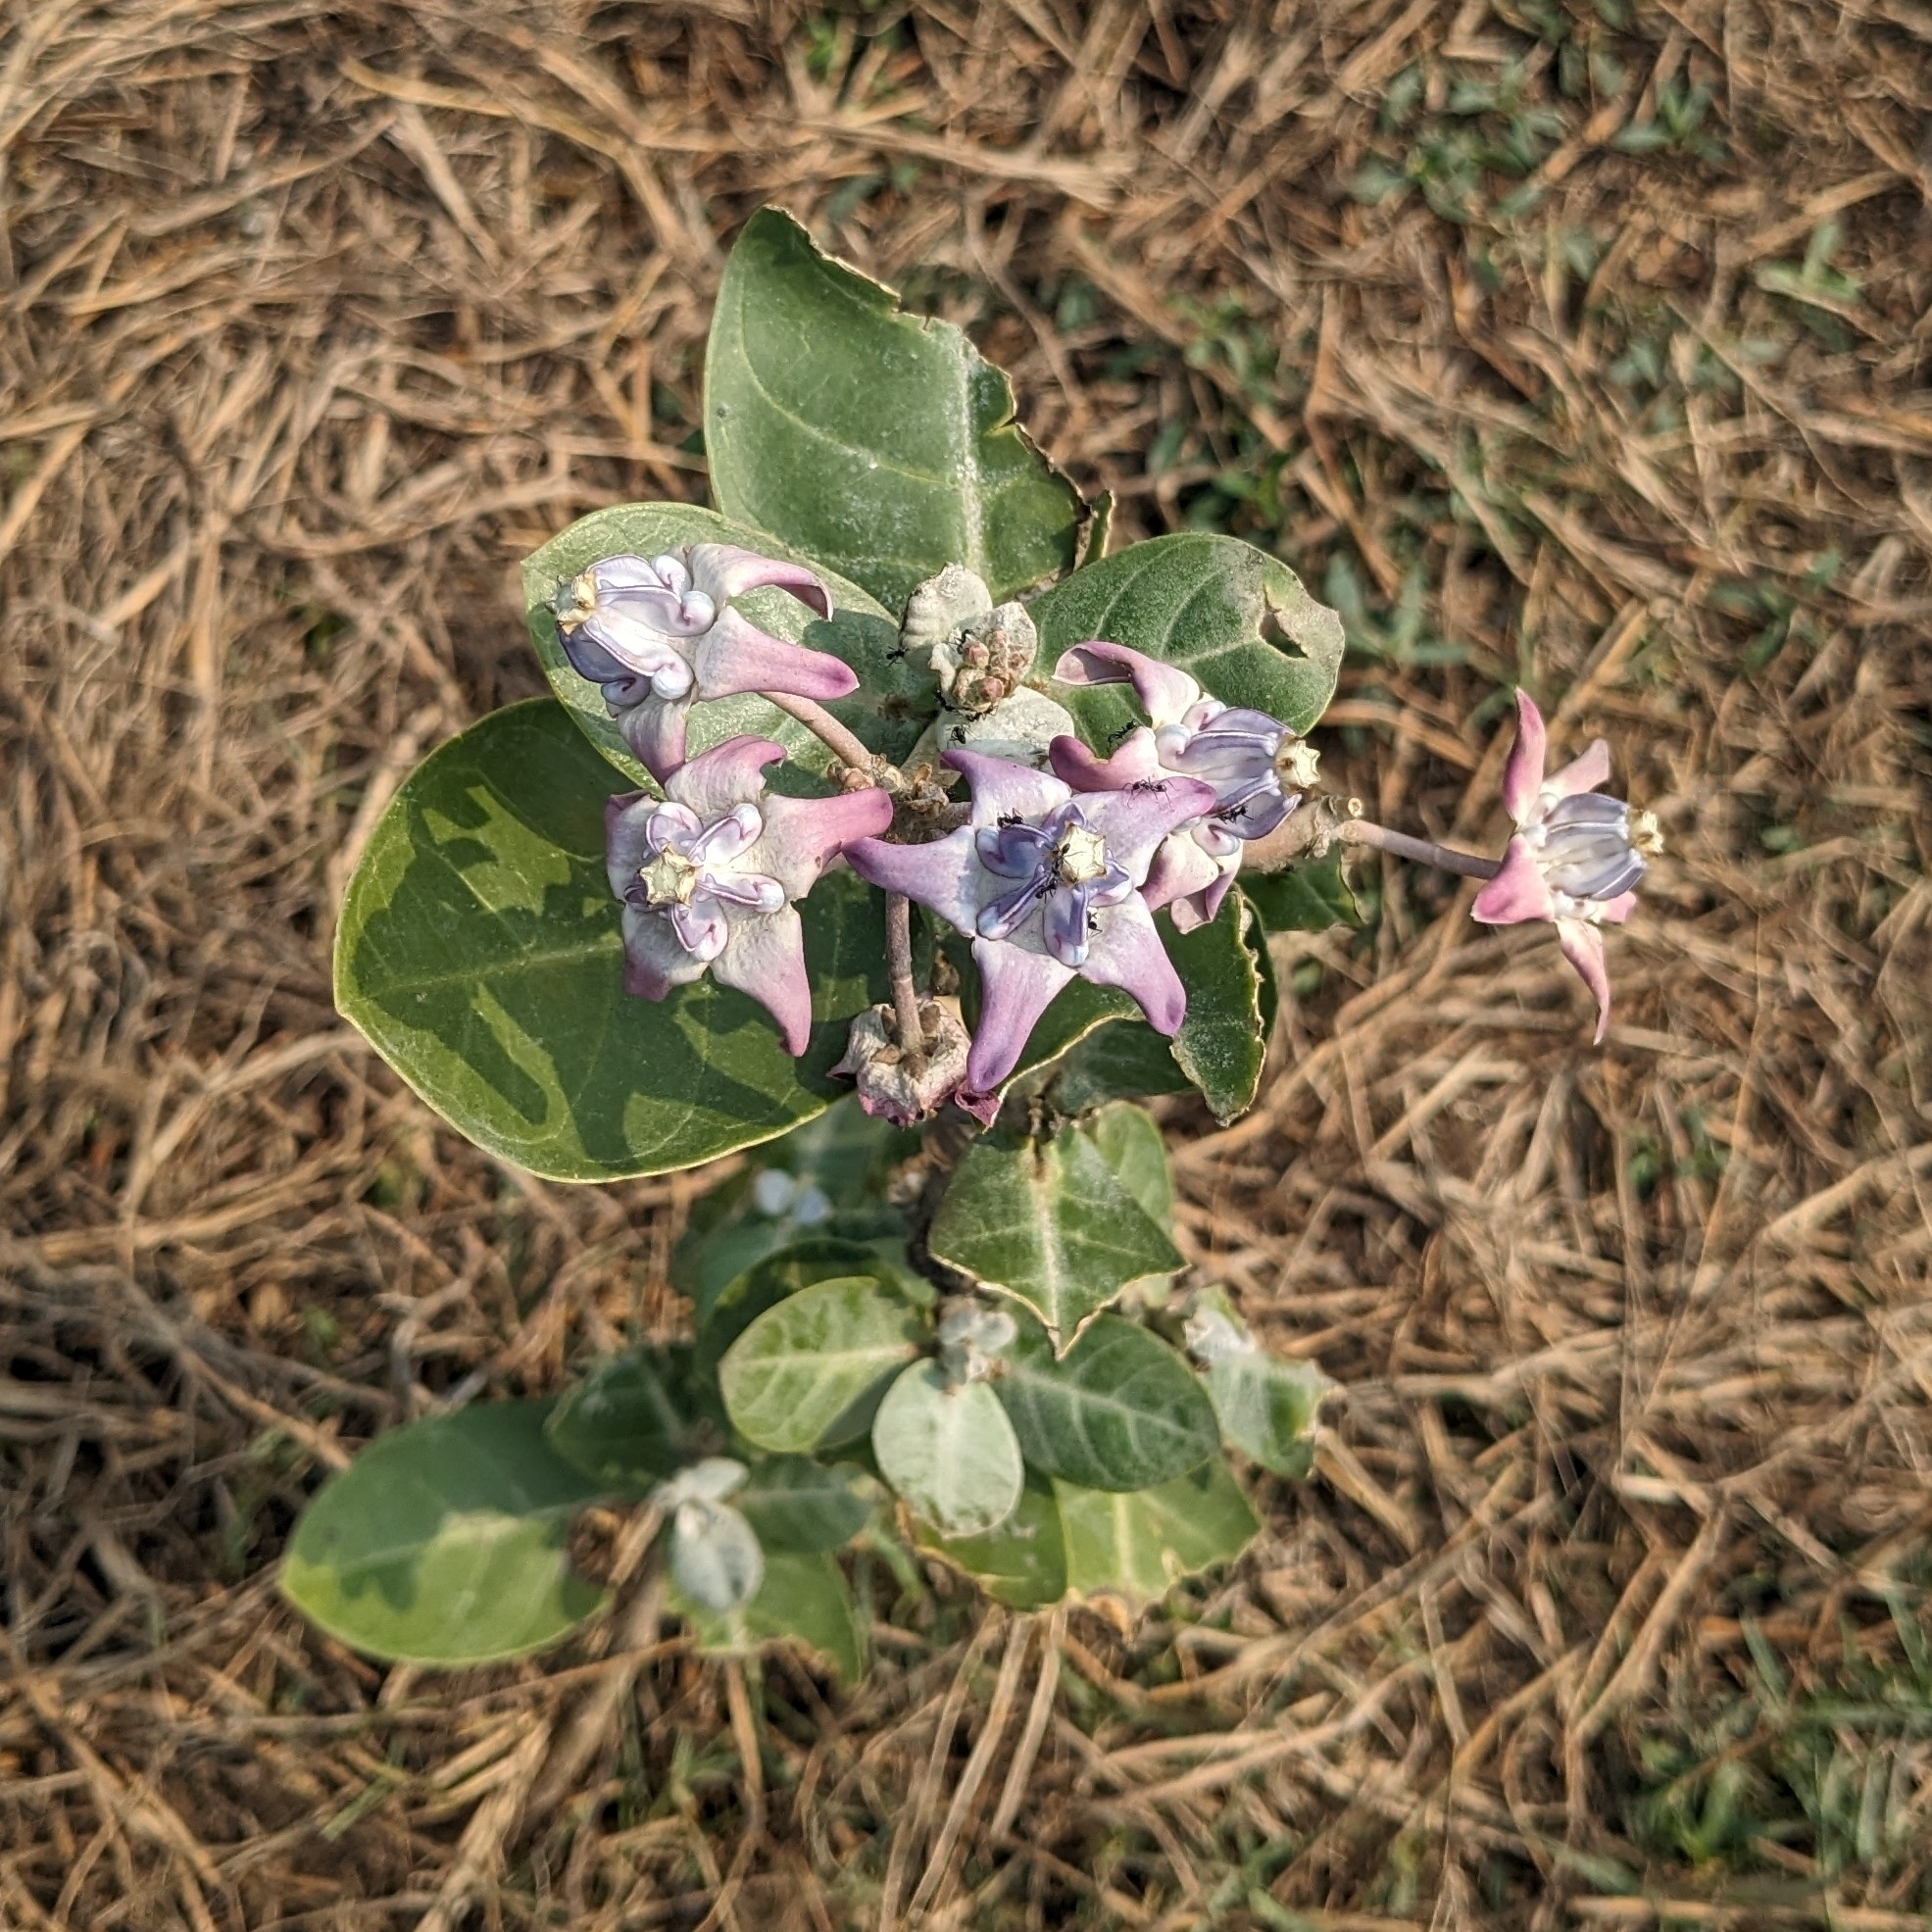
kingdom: Plantae
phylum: Tracheophyta
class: Magnoliopsida
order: Gentianales
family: Apocynaceae
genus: Calotropis
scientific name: Calotropis gigantea
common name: Crown flower
